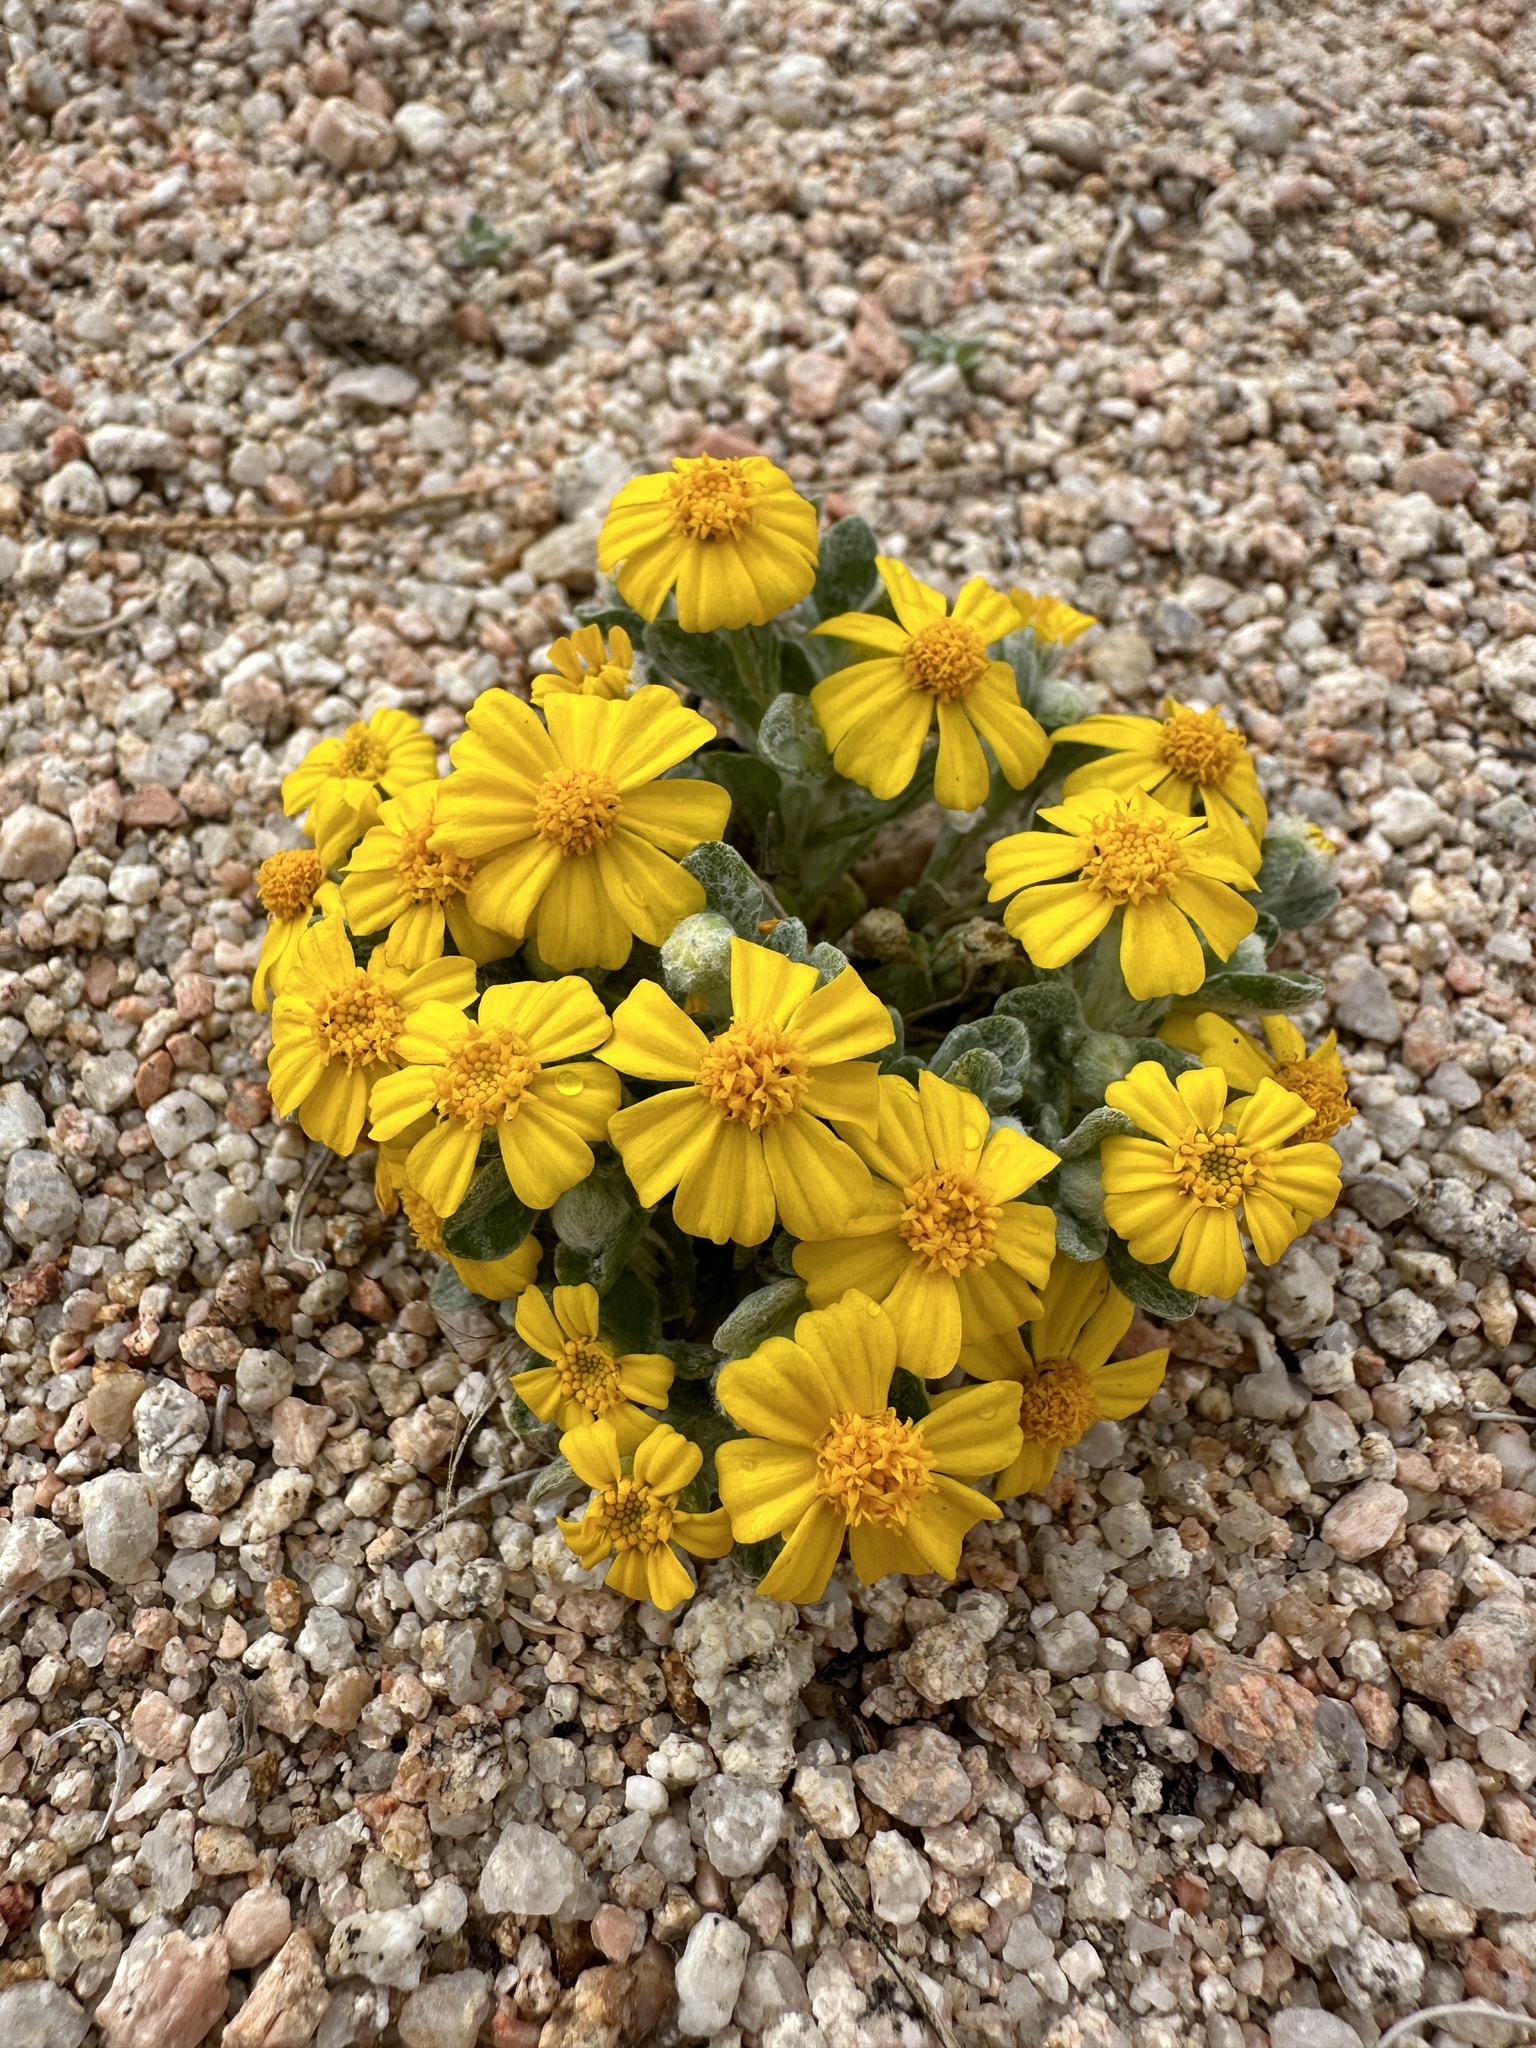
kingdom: Plantae
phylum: Tracheophyta
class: Magnoliopsida
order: Asterales
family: Asteraceae
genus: Eriophyllum
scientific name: Eriophyllum wallacei
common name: Wallace's woolly daisy
